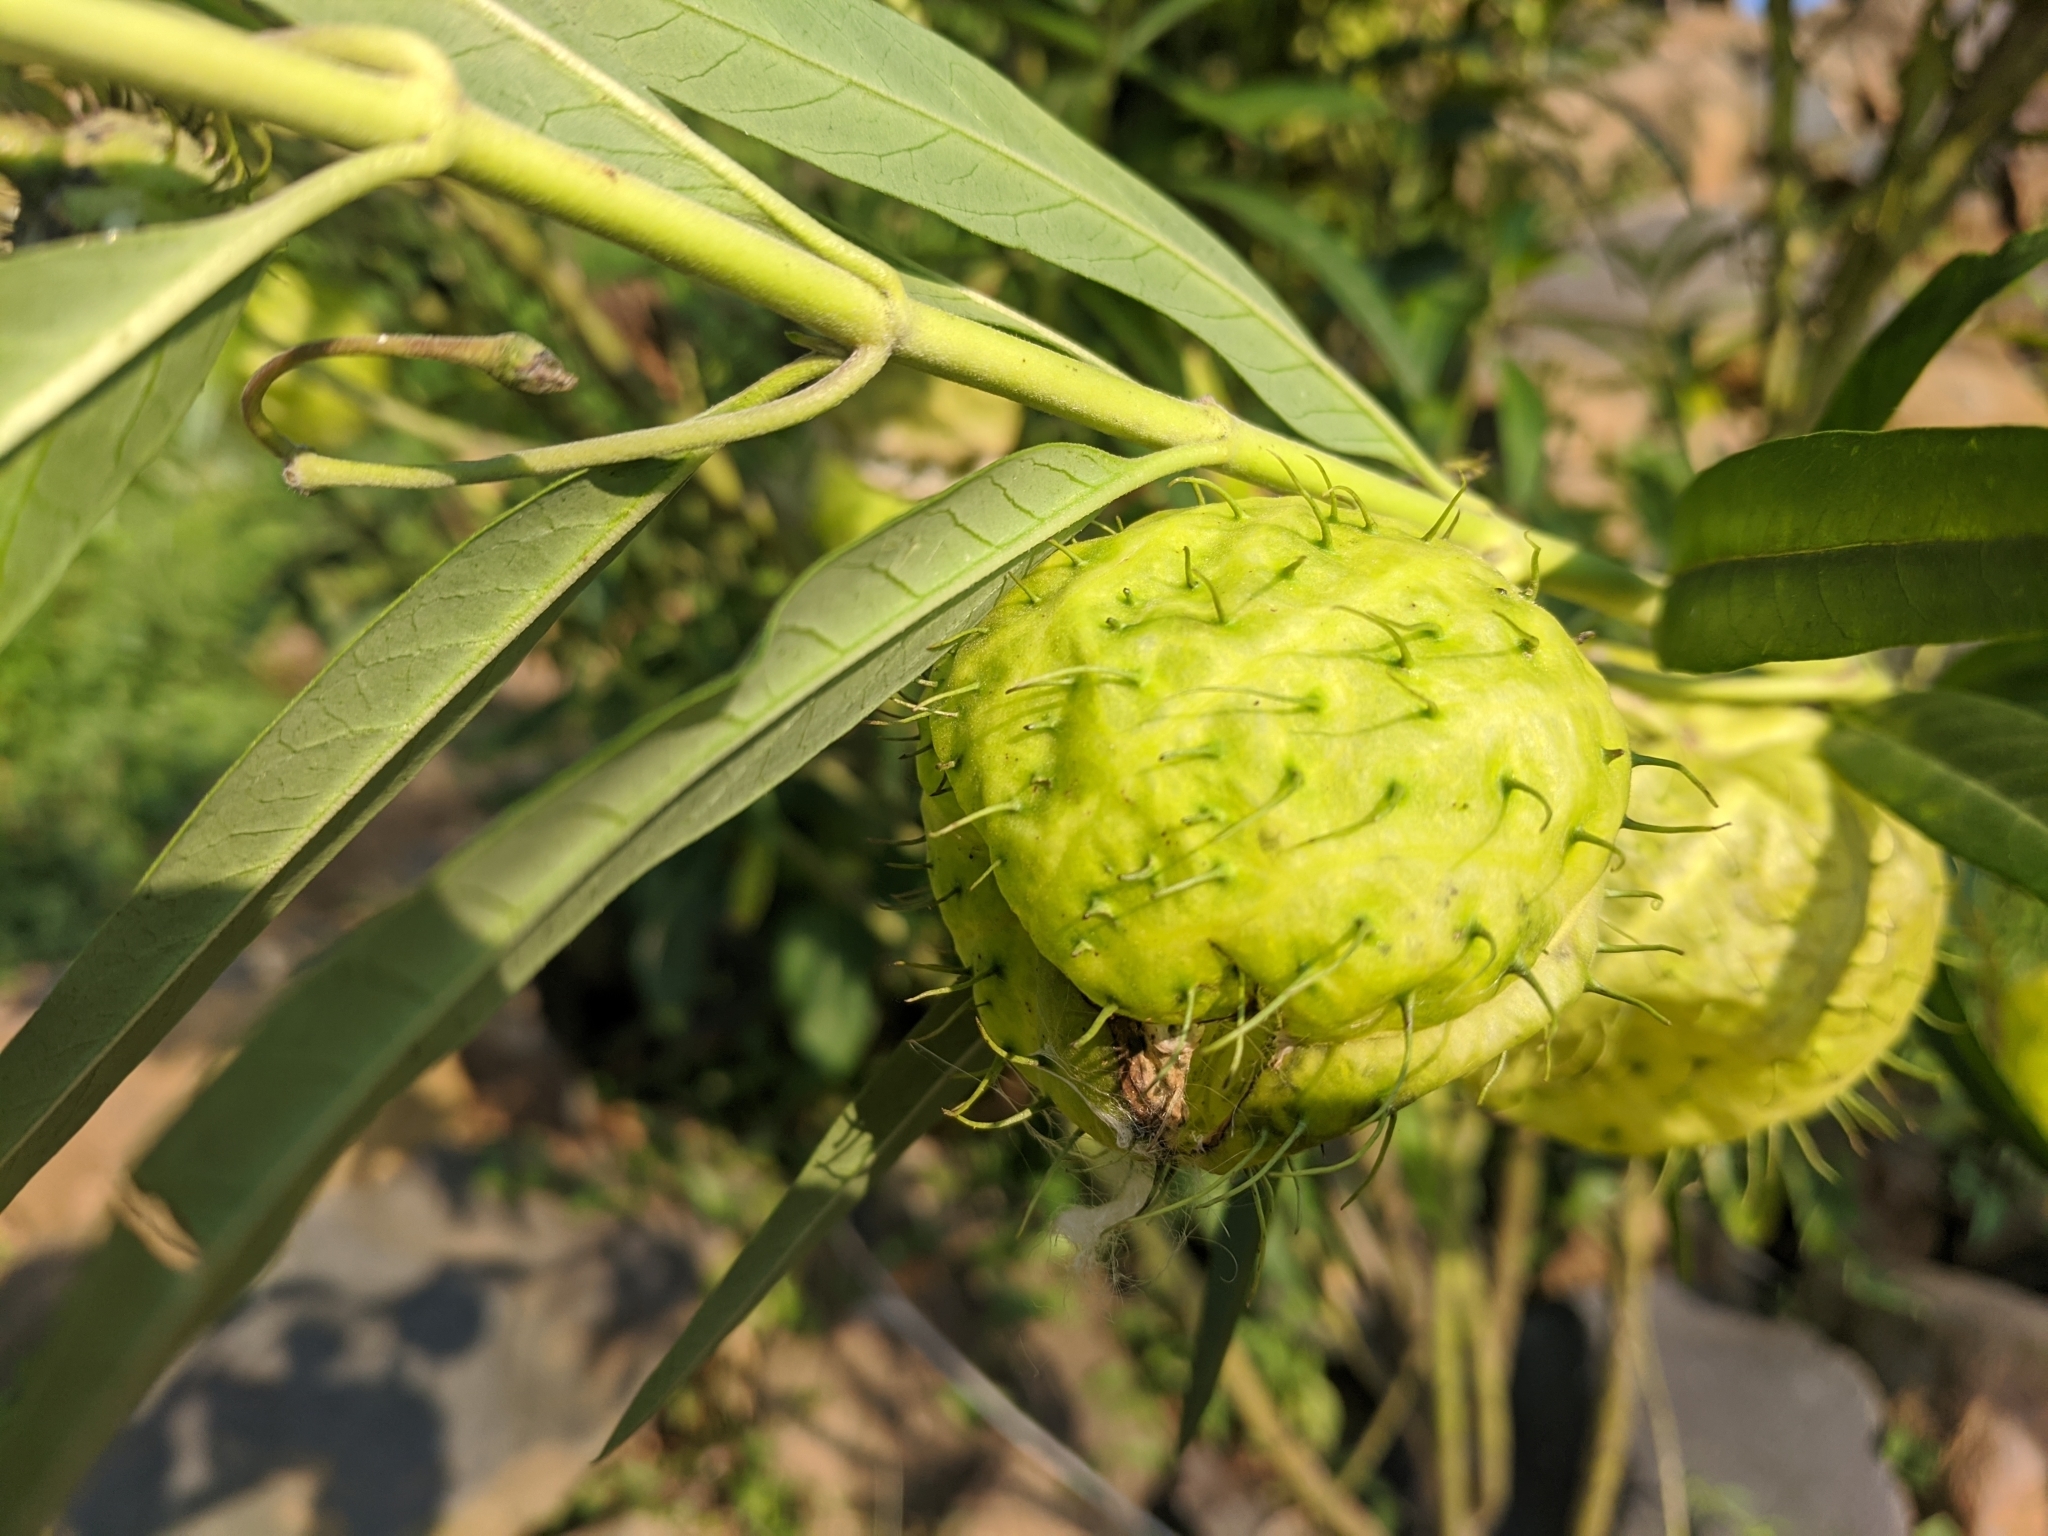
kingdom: Plantae
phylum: Tracheophyta
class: Magnoliopsida
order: Gentianales
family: Apocynaceae
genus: Gomphocarpus
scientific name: Gomphocarpus physocarpus
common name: Balloon cotton bush
